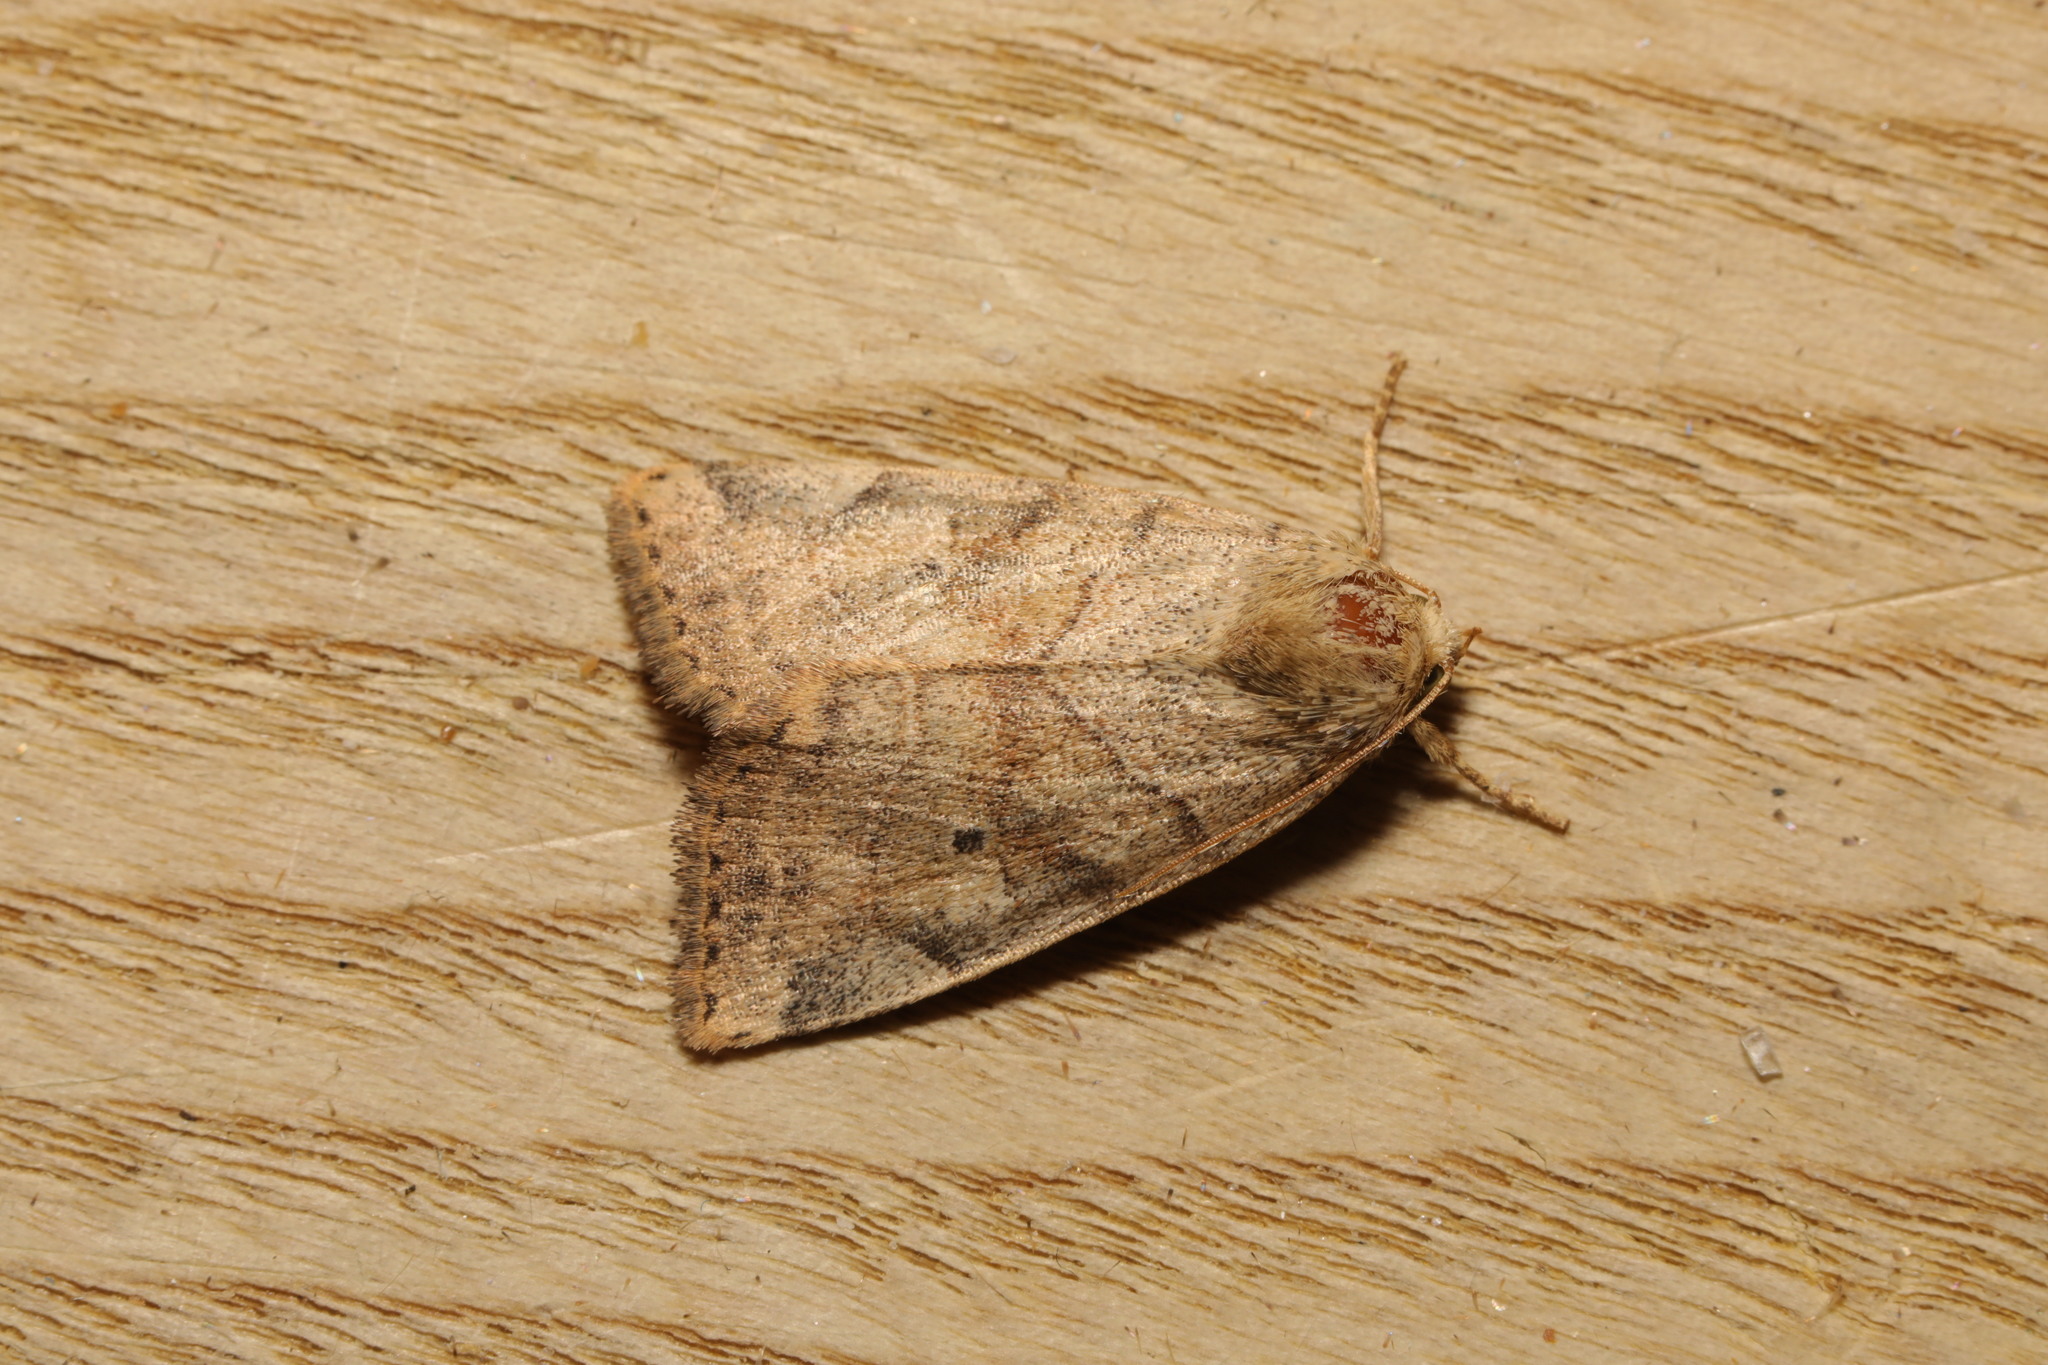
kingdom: Animalia
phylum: Arthropoda
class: Insecta
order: Lepidoptera
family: Noctuidae
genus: Cosmia
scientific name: Cosmia trapezina
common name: Dun-bar
